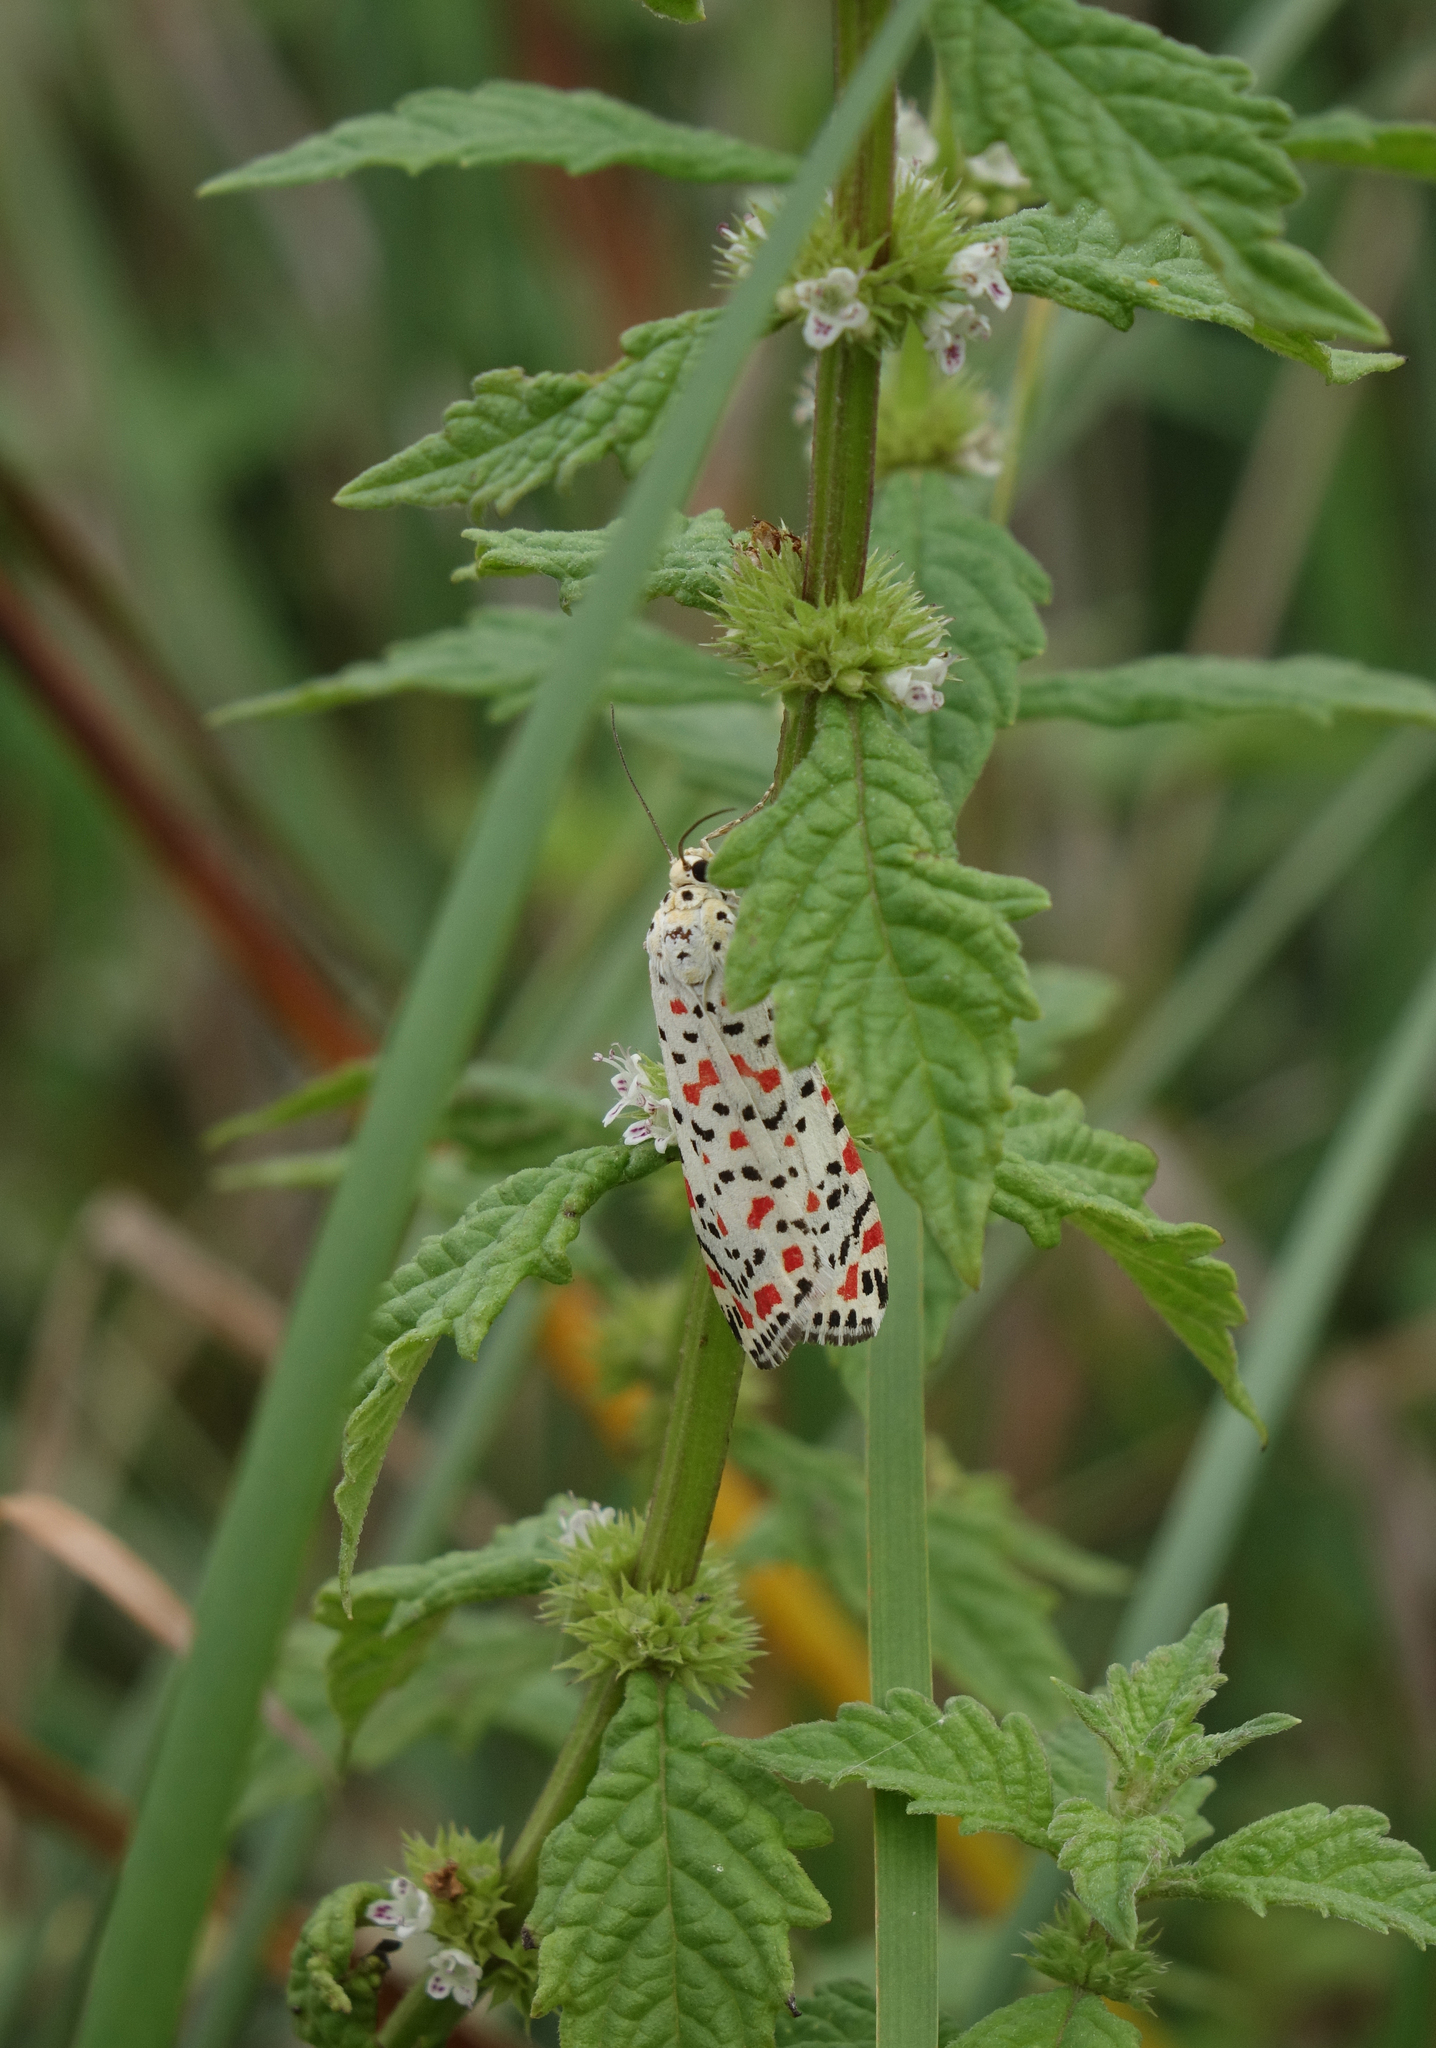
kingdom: Plantae
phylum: Tracheophyta
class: Magnoliopsida
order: Lamiales
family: Lamiaceae
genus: Lycopus
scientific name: Lycopus europaeus
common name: European bugleweed
